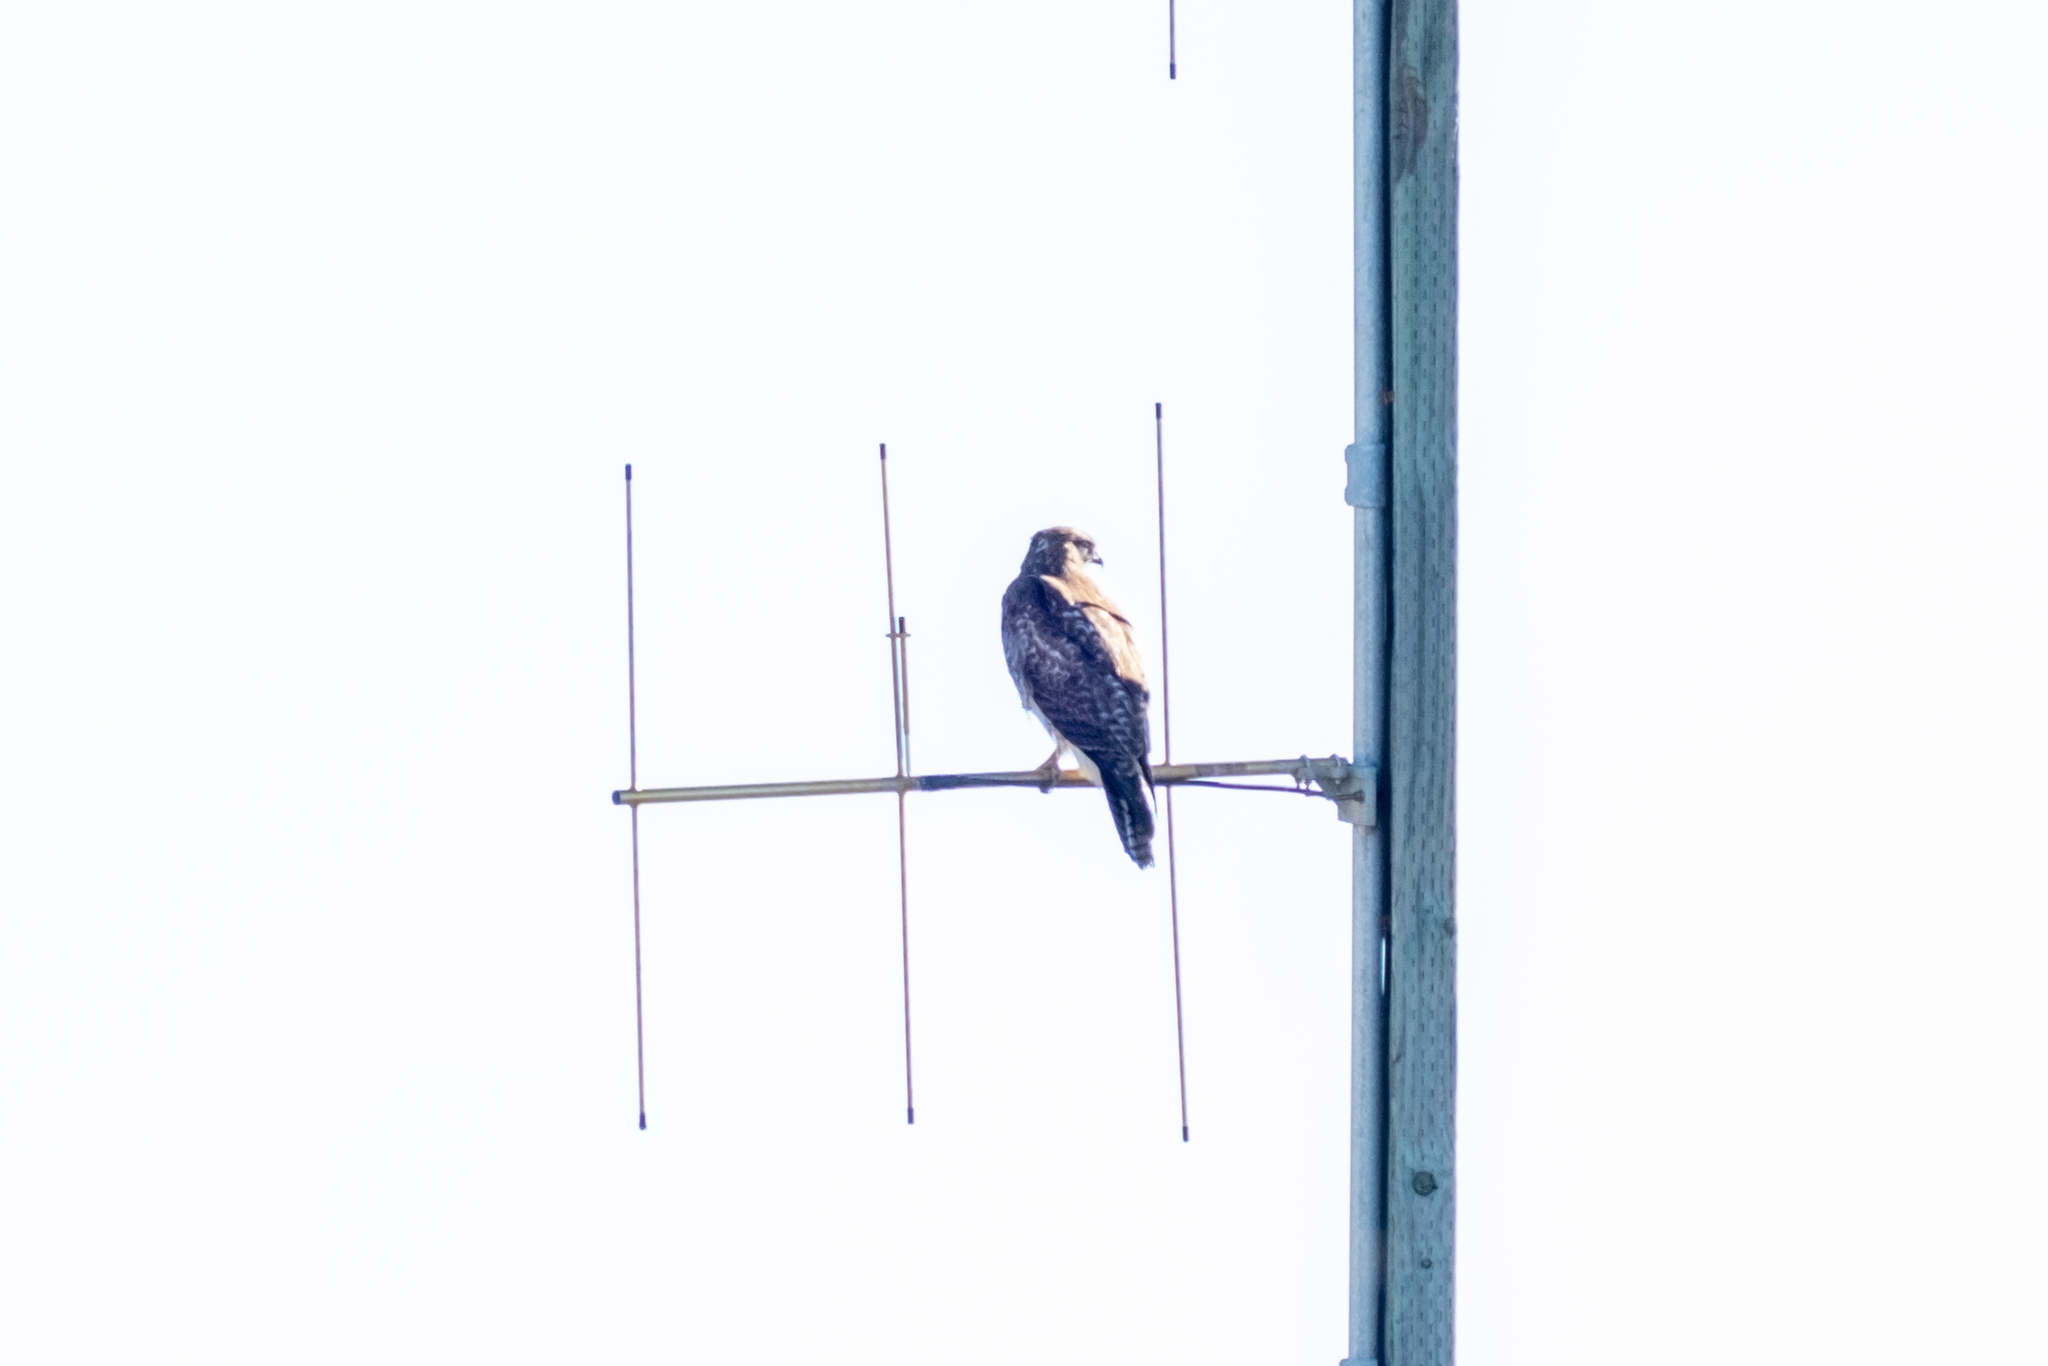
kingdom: Animalia
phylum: Chordata
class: Aves
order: Accipitriformes
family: Accipitridae
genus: Buteo
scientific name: Buteo jamaicensis
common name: Red-tailed hawk
